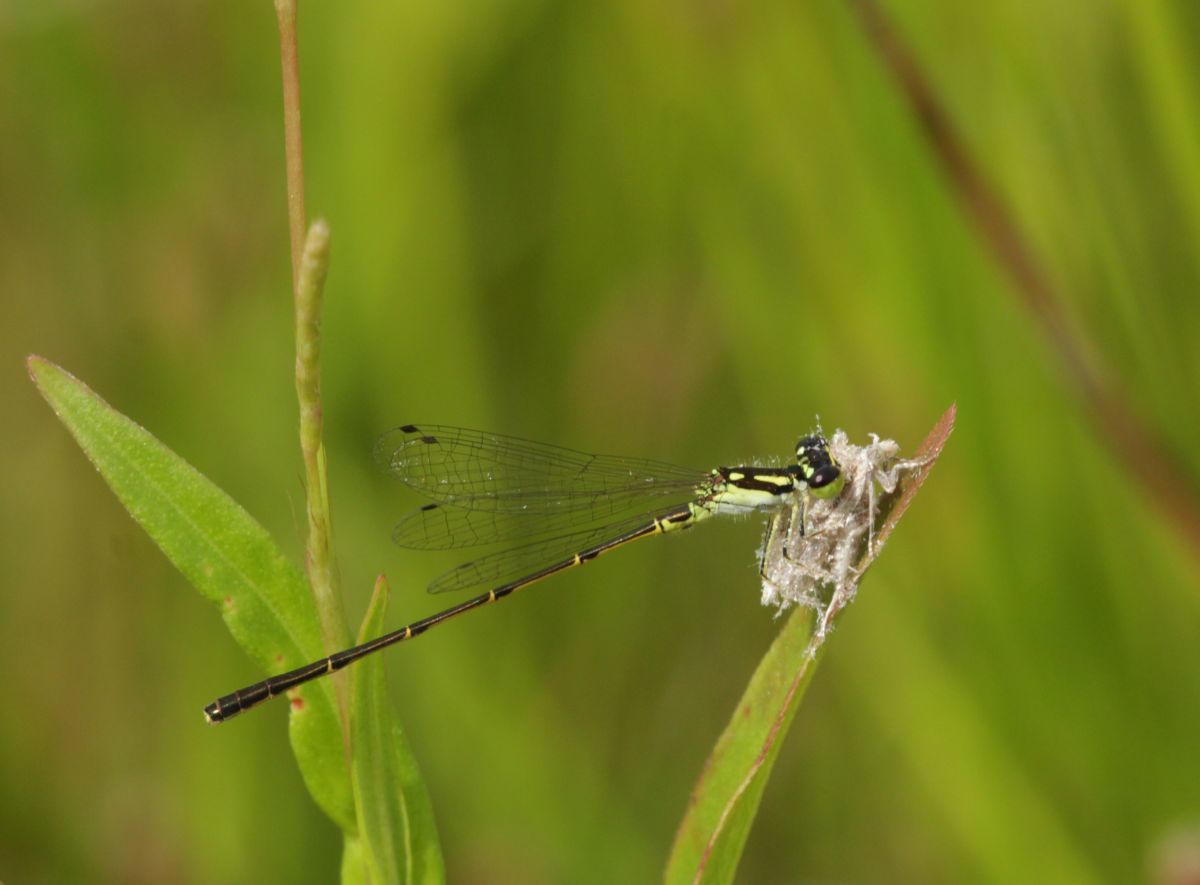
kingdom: Animalia
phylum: Arthropoda
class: Insecta
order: Odonata
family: Coenagrionidae
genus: Ischnura
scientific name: Ischnura posita
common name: Fragile forktail
